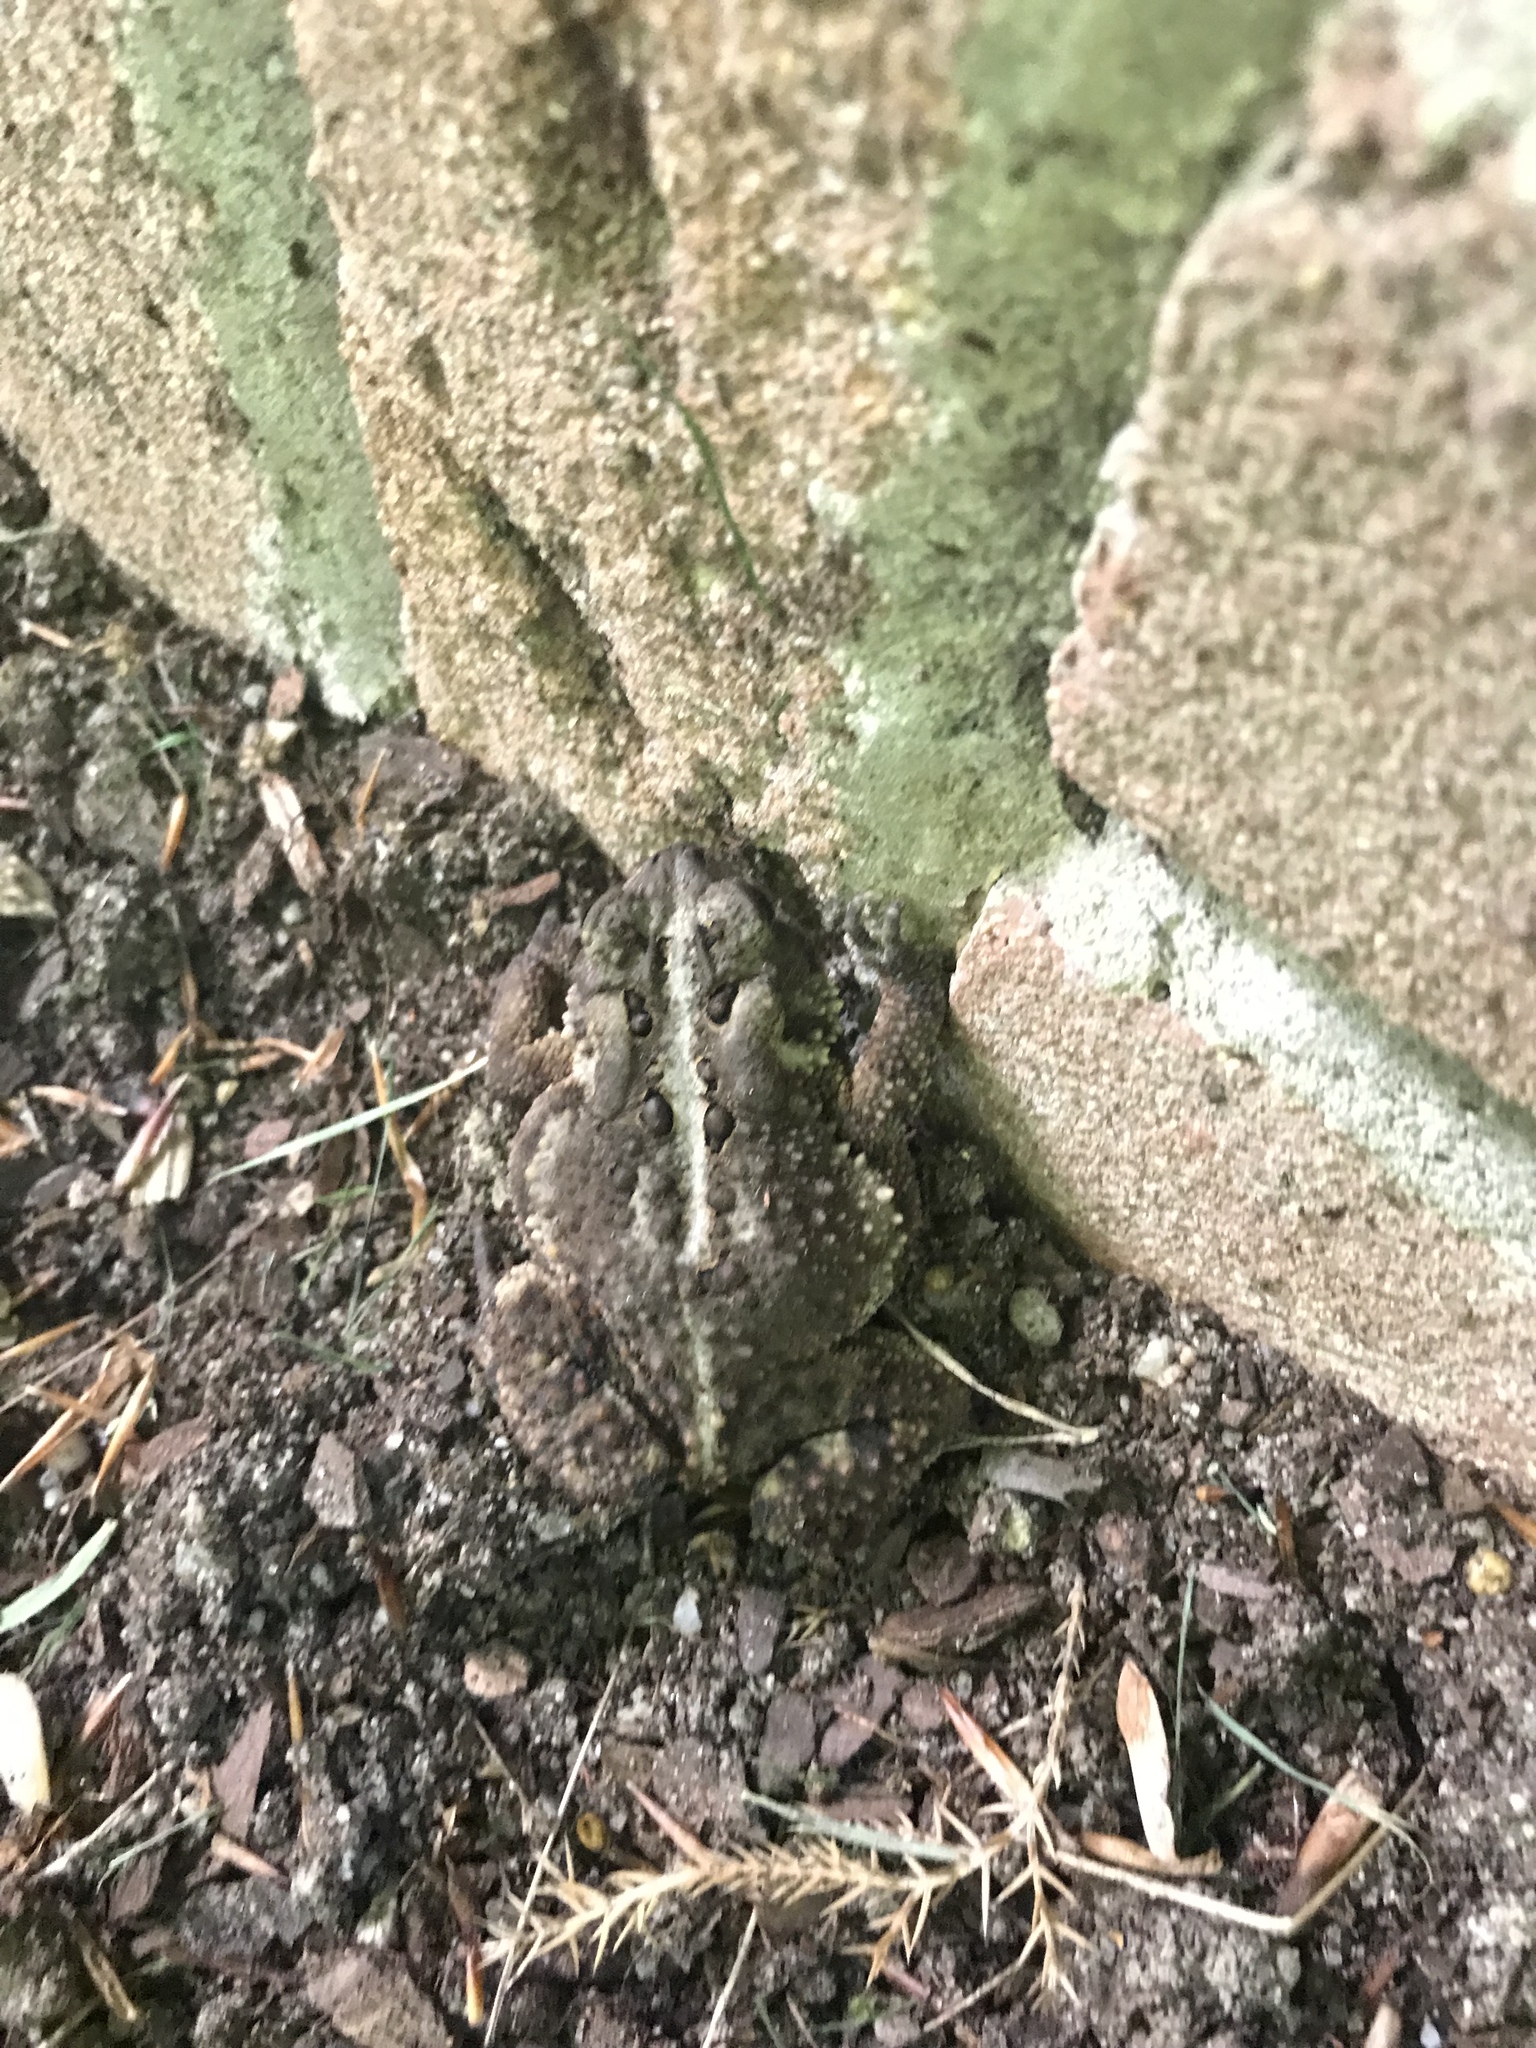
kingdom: Animalia
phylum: Chordata
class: Amphibia
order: Anura
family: Bufonidae
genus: Anaxyrus
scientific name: Anaxyrus americanus
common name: American toad
